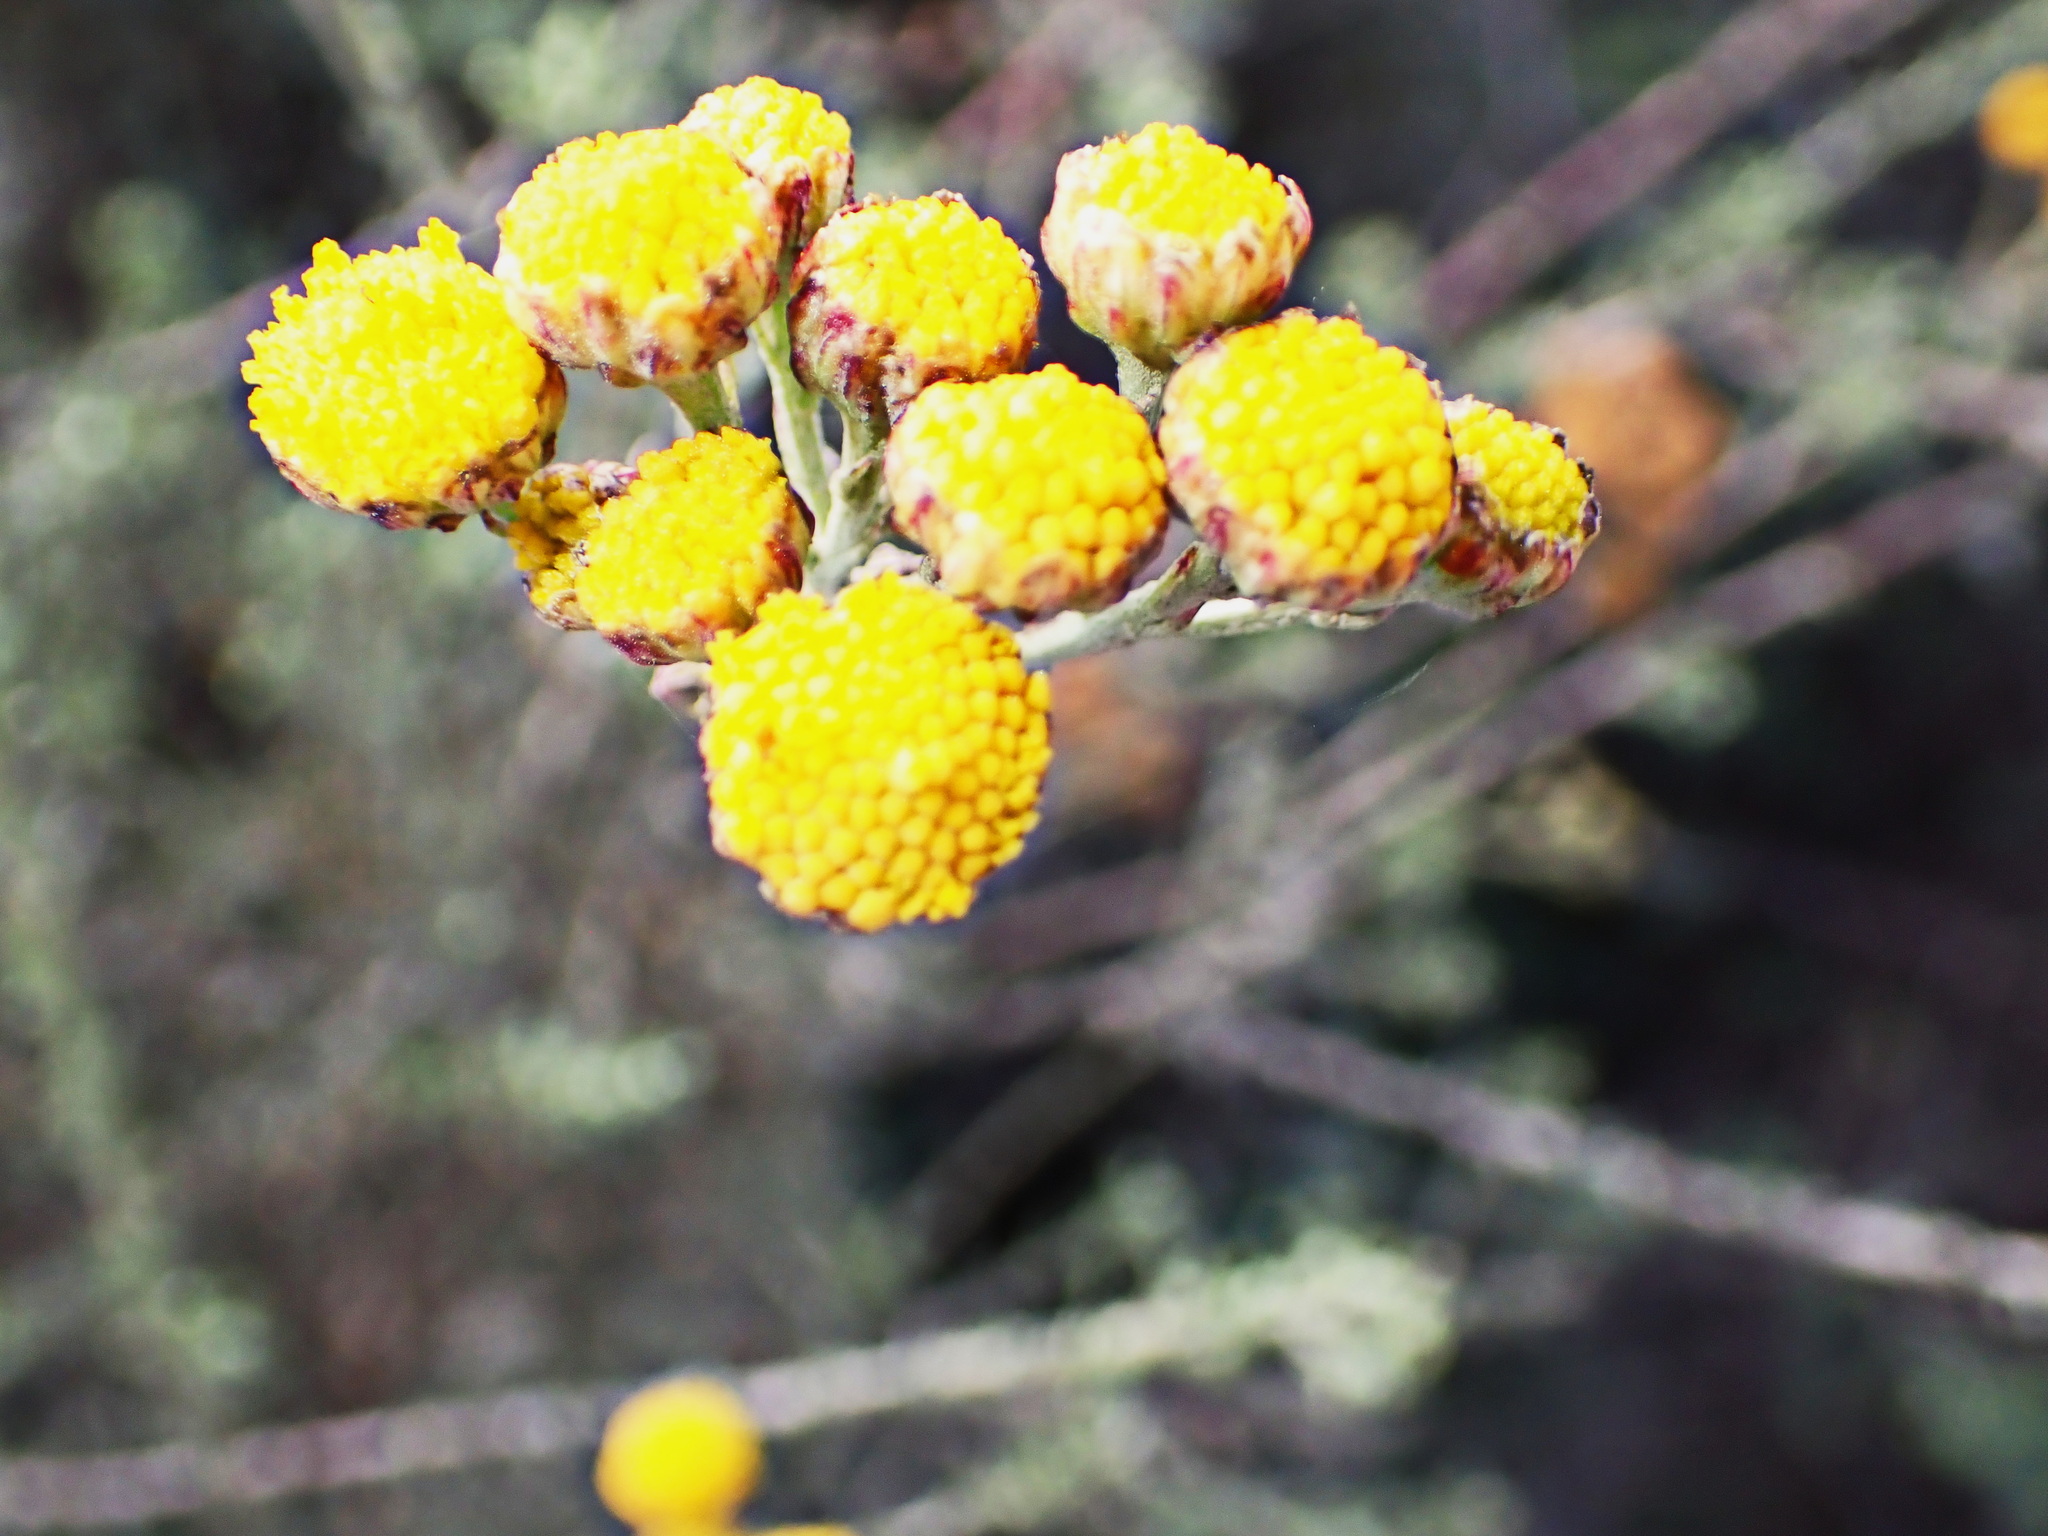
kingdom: Plantae
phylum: Tracheophyta
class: Magnoliopsida
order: Asterales
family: Asteraceae
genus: Athanasia
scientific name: Athanasia trifurcata
